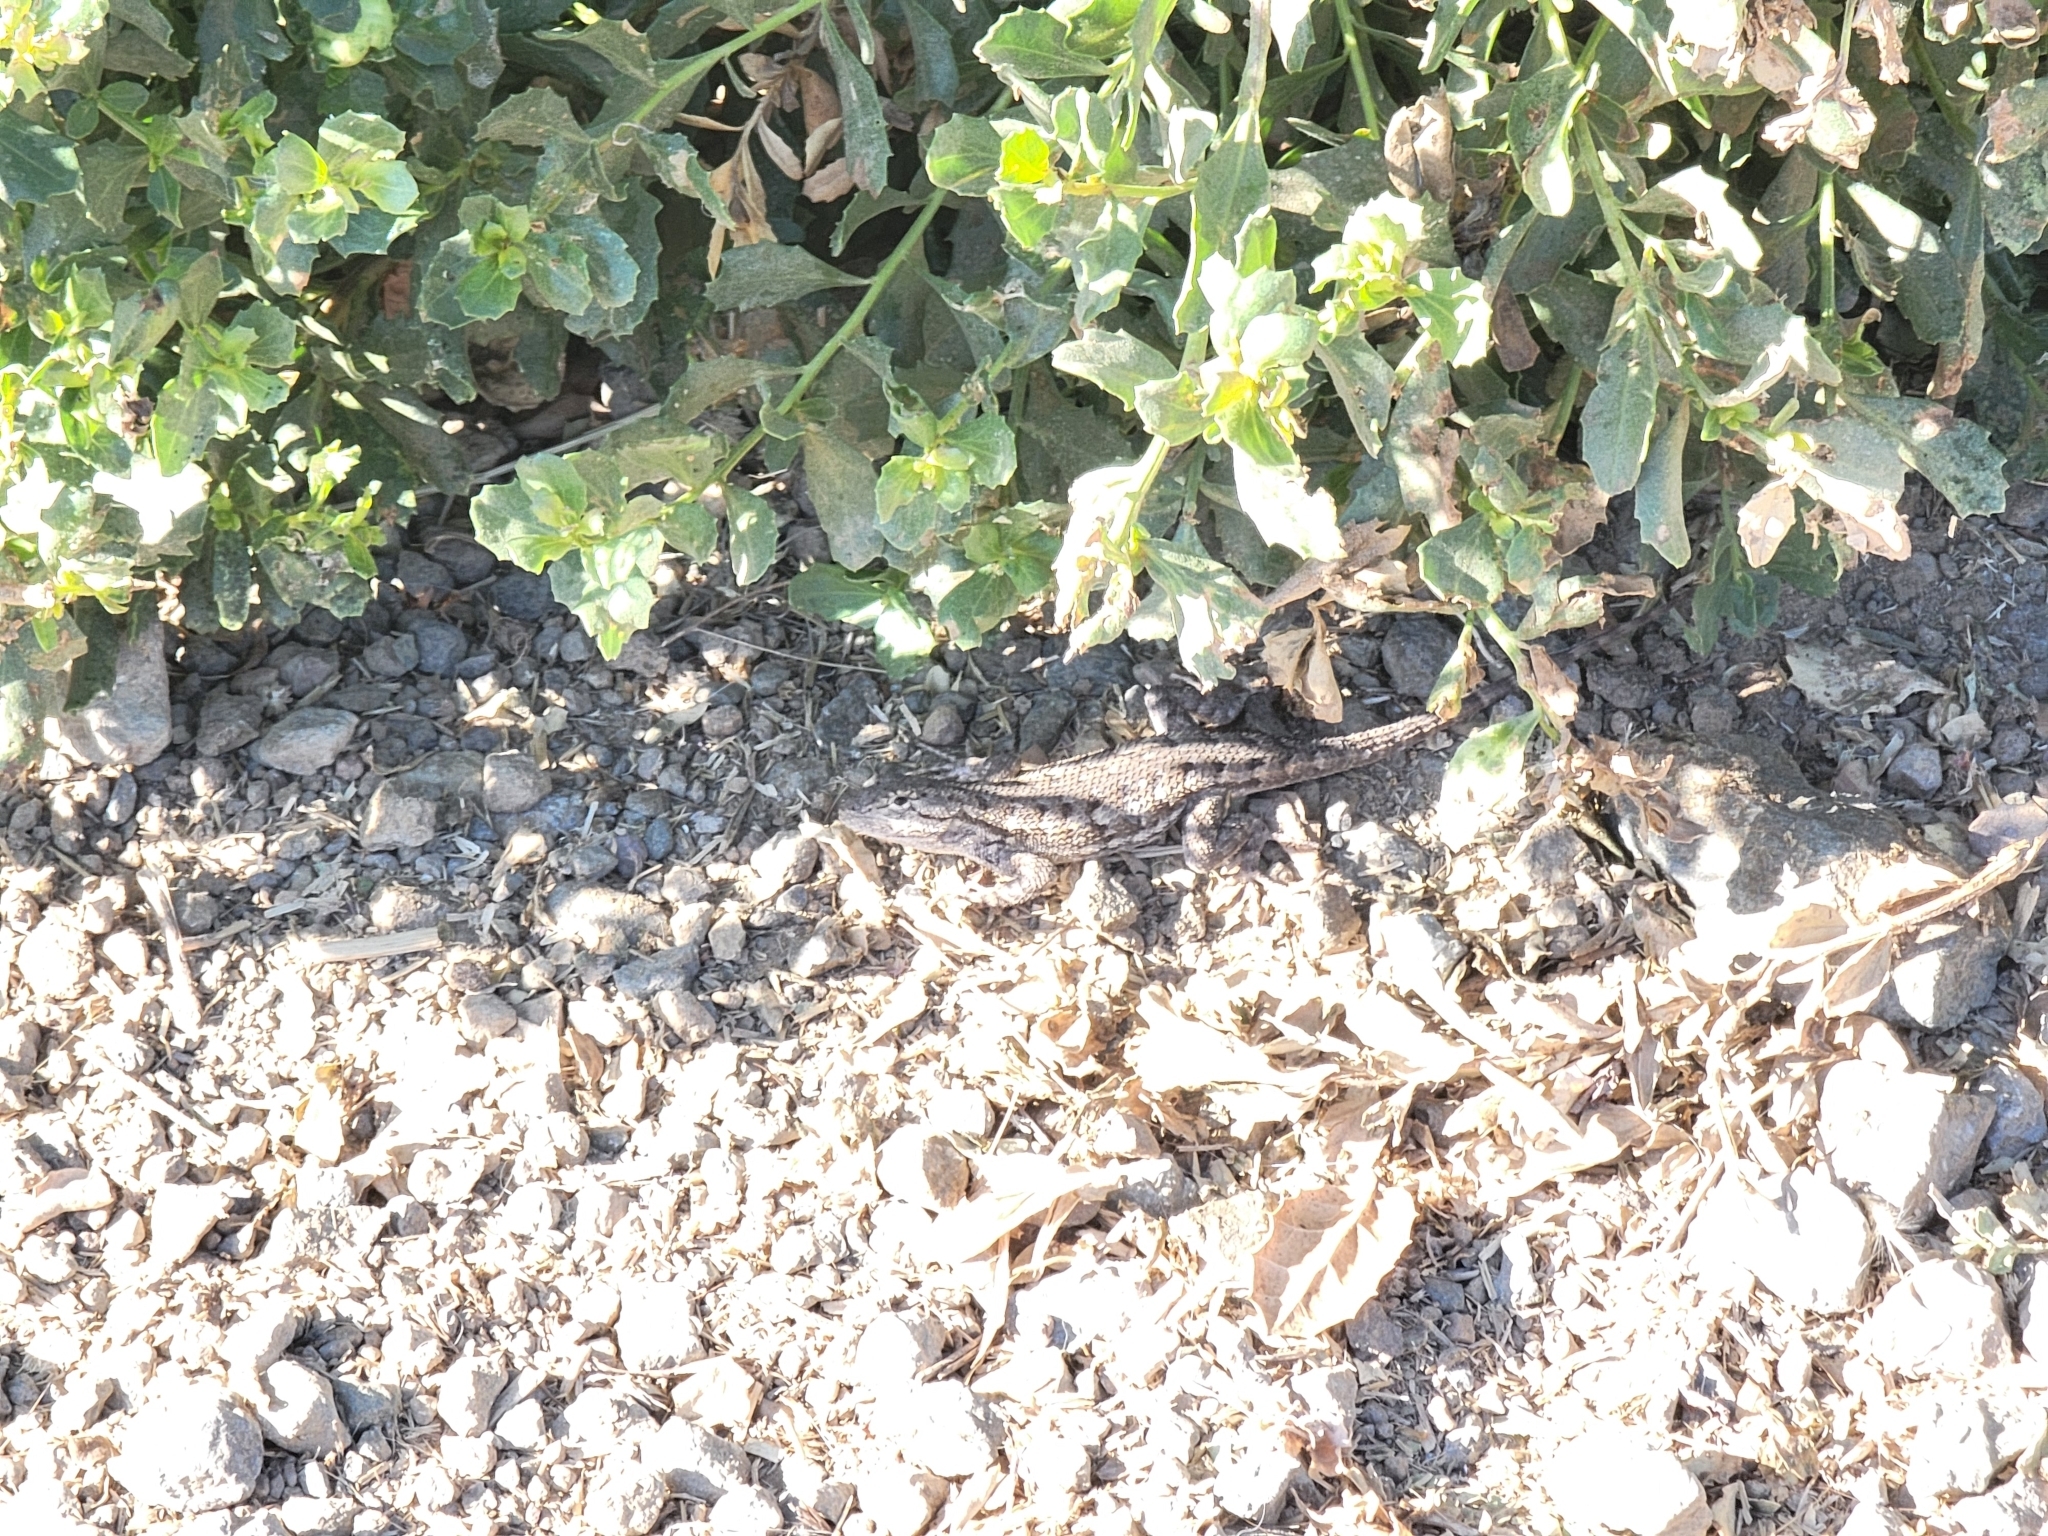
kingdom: Animalia
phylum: Chordata
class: Squamata
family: Phrynosomatidae
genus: Sceloporus
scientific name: Sceloporus occidentalis
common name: Western fence lizard
